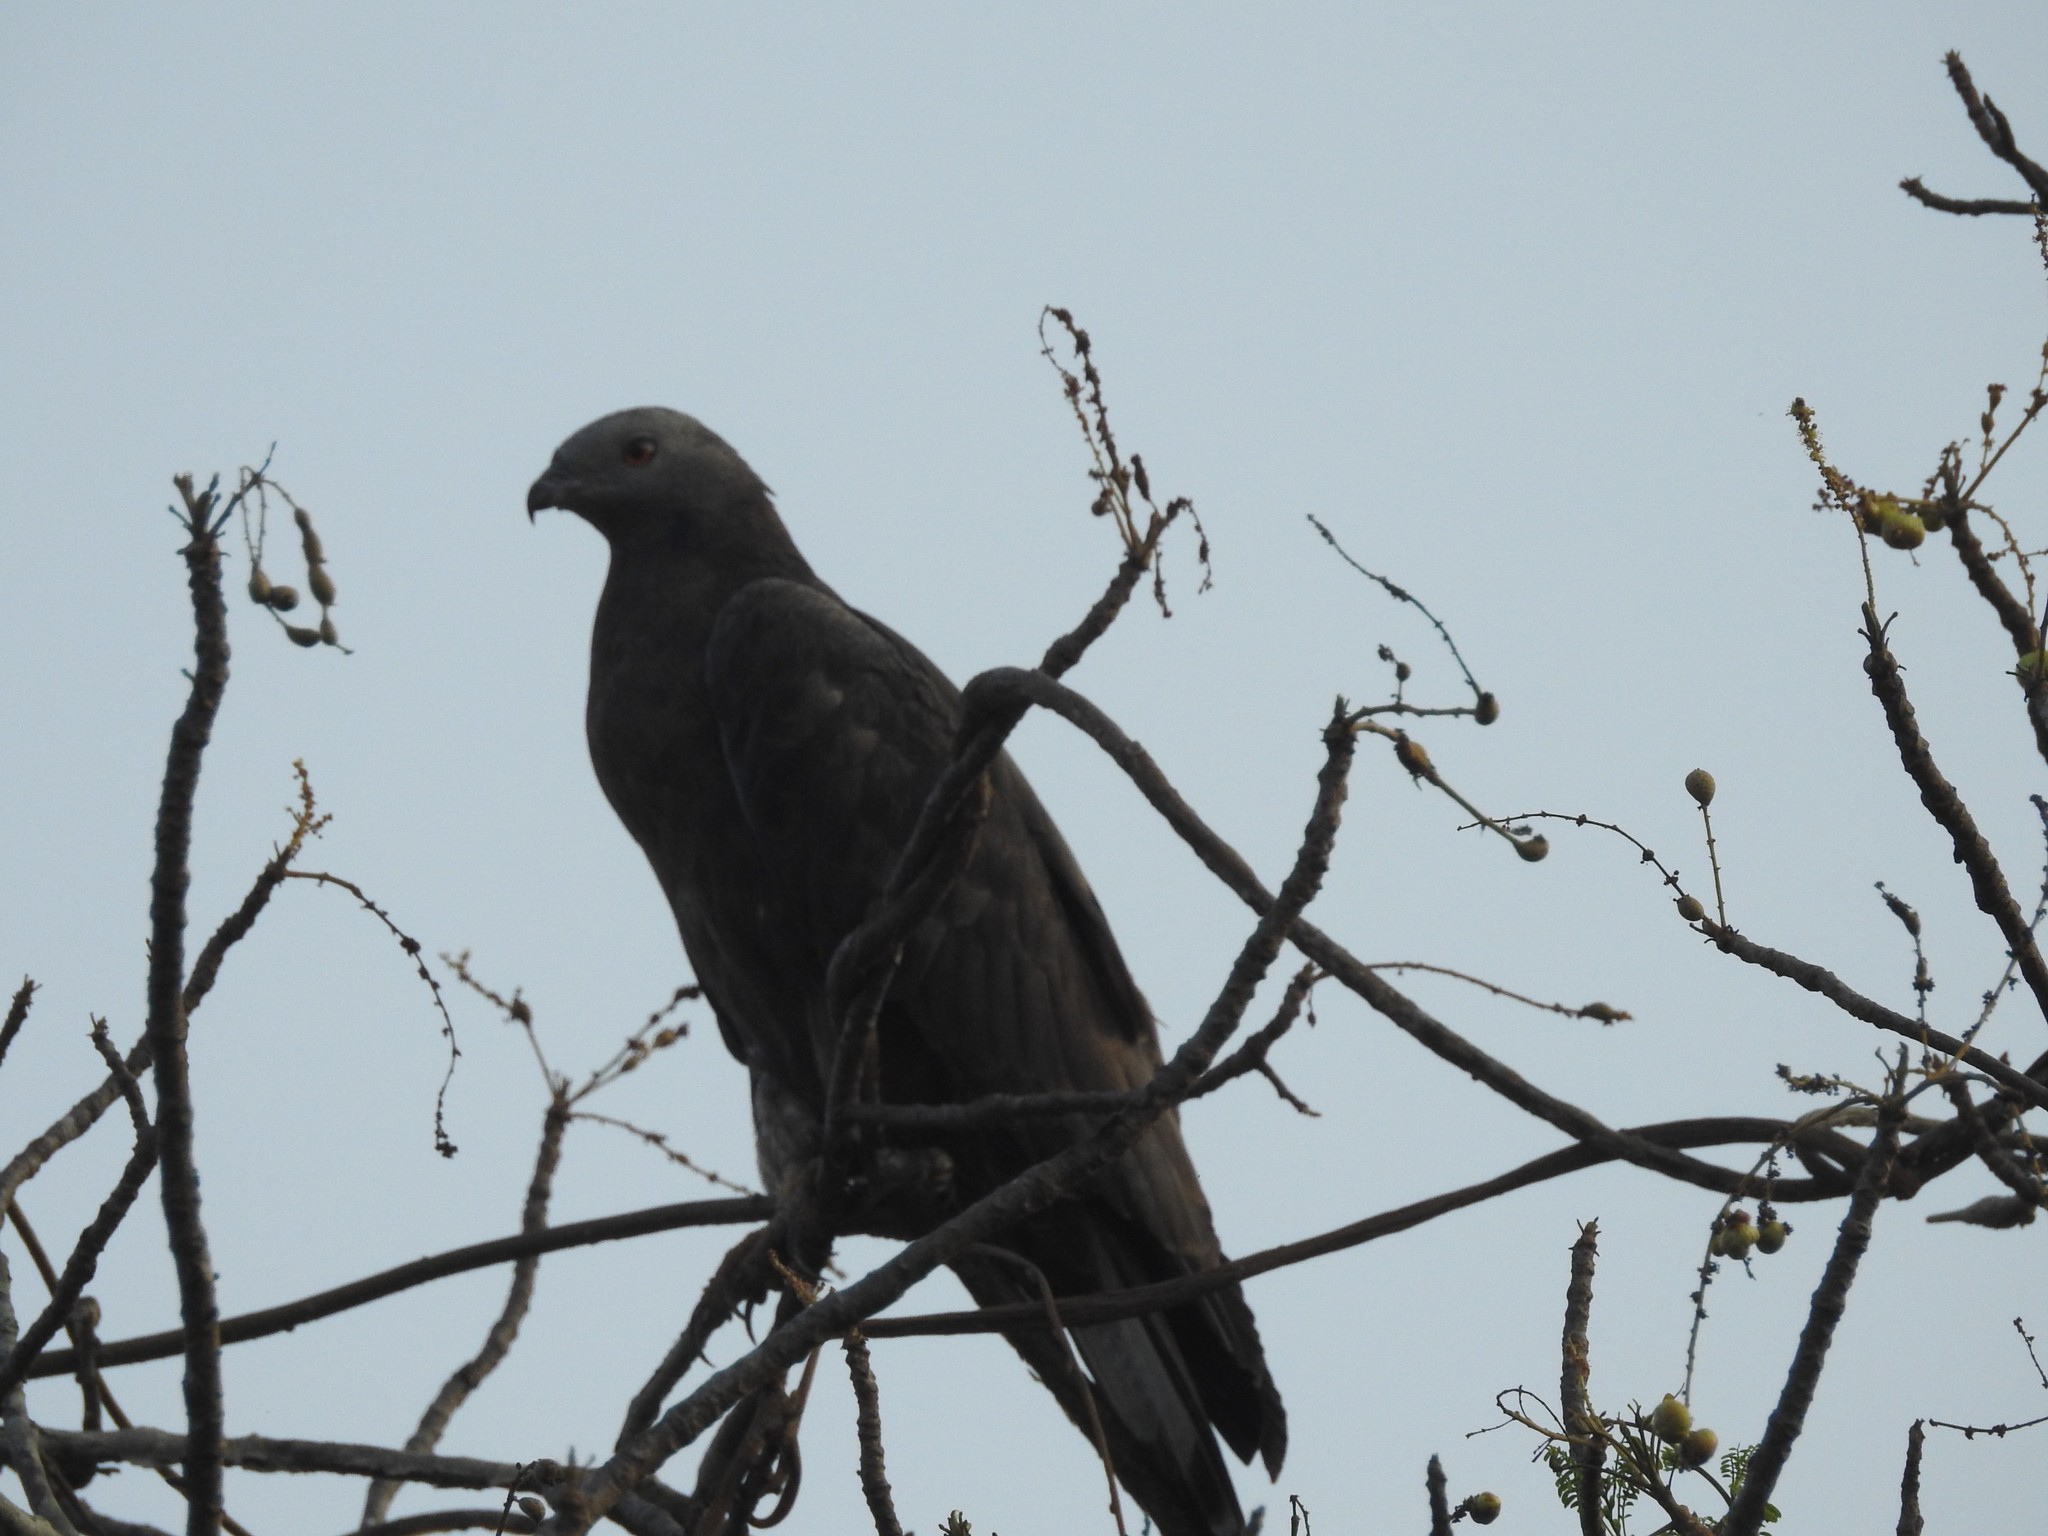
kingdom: Animalia
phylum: Chordata
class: Aves
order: Accipitriformes
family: Accipitridae
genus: Pernis
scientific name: Pernis ptilorhynchus
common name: Crested honey buzzard
